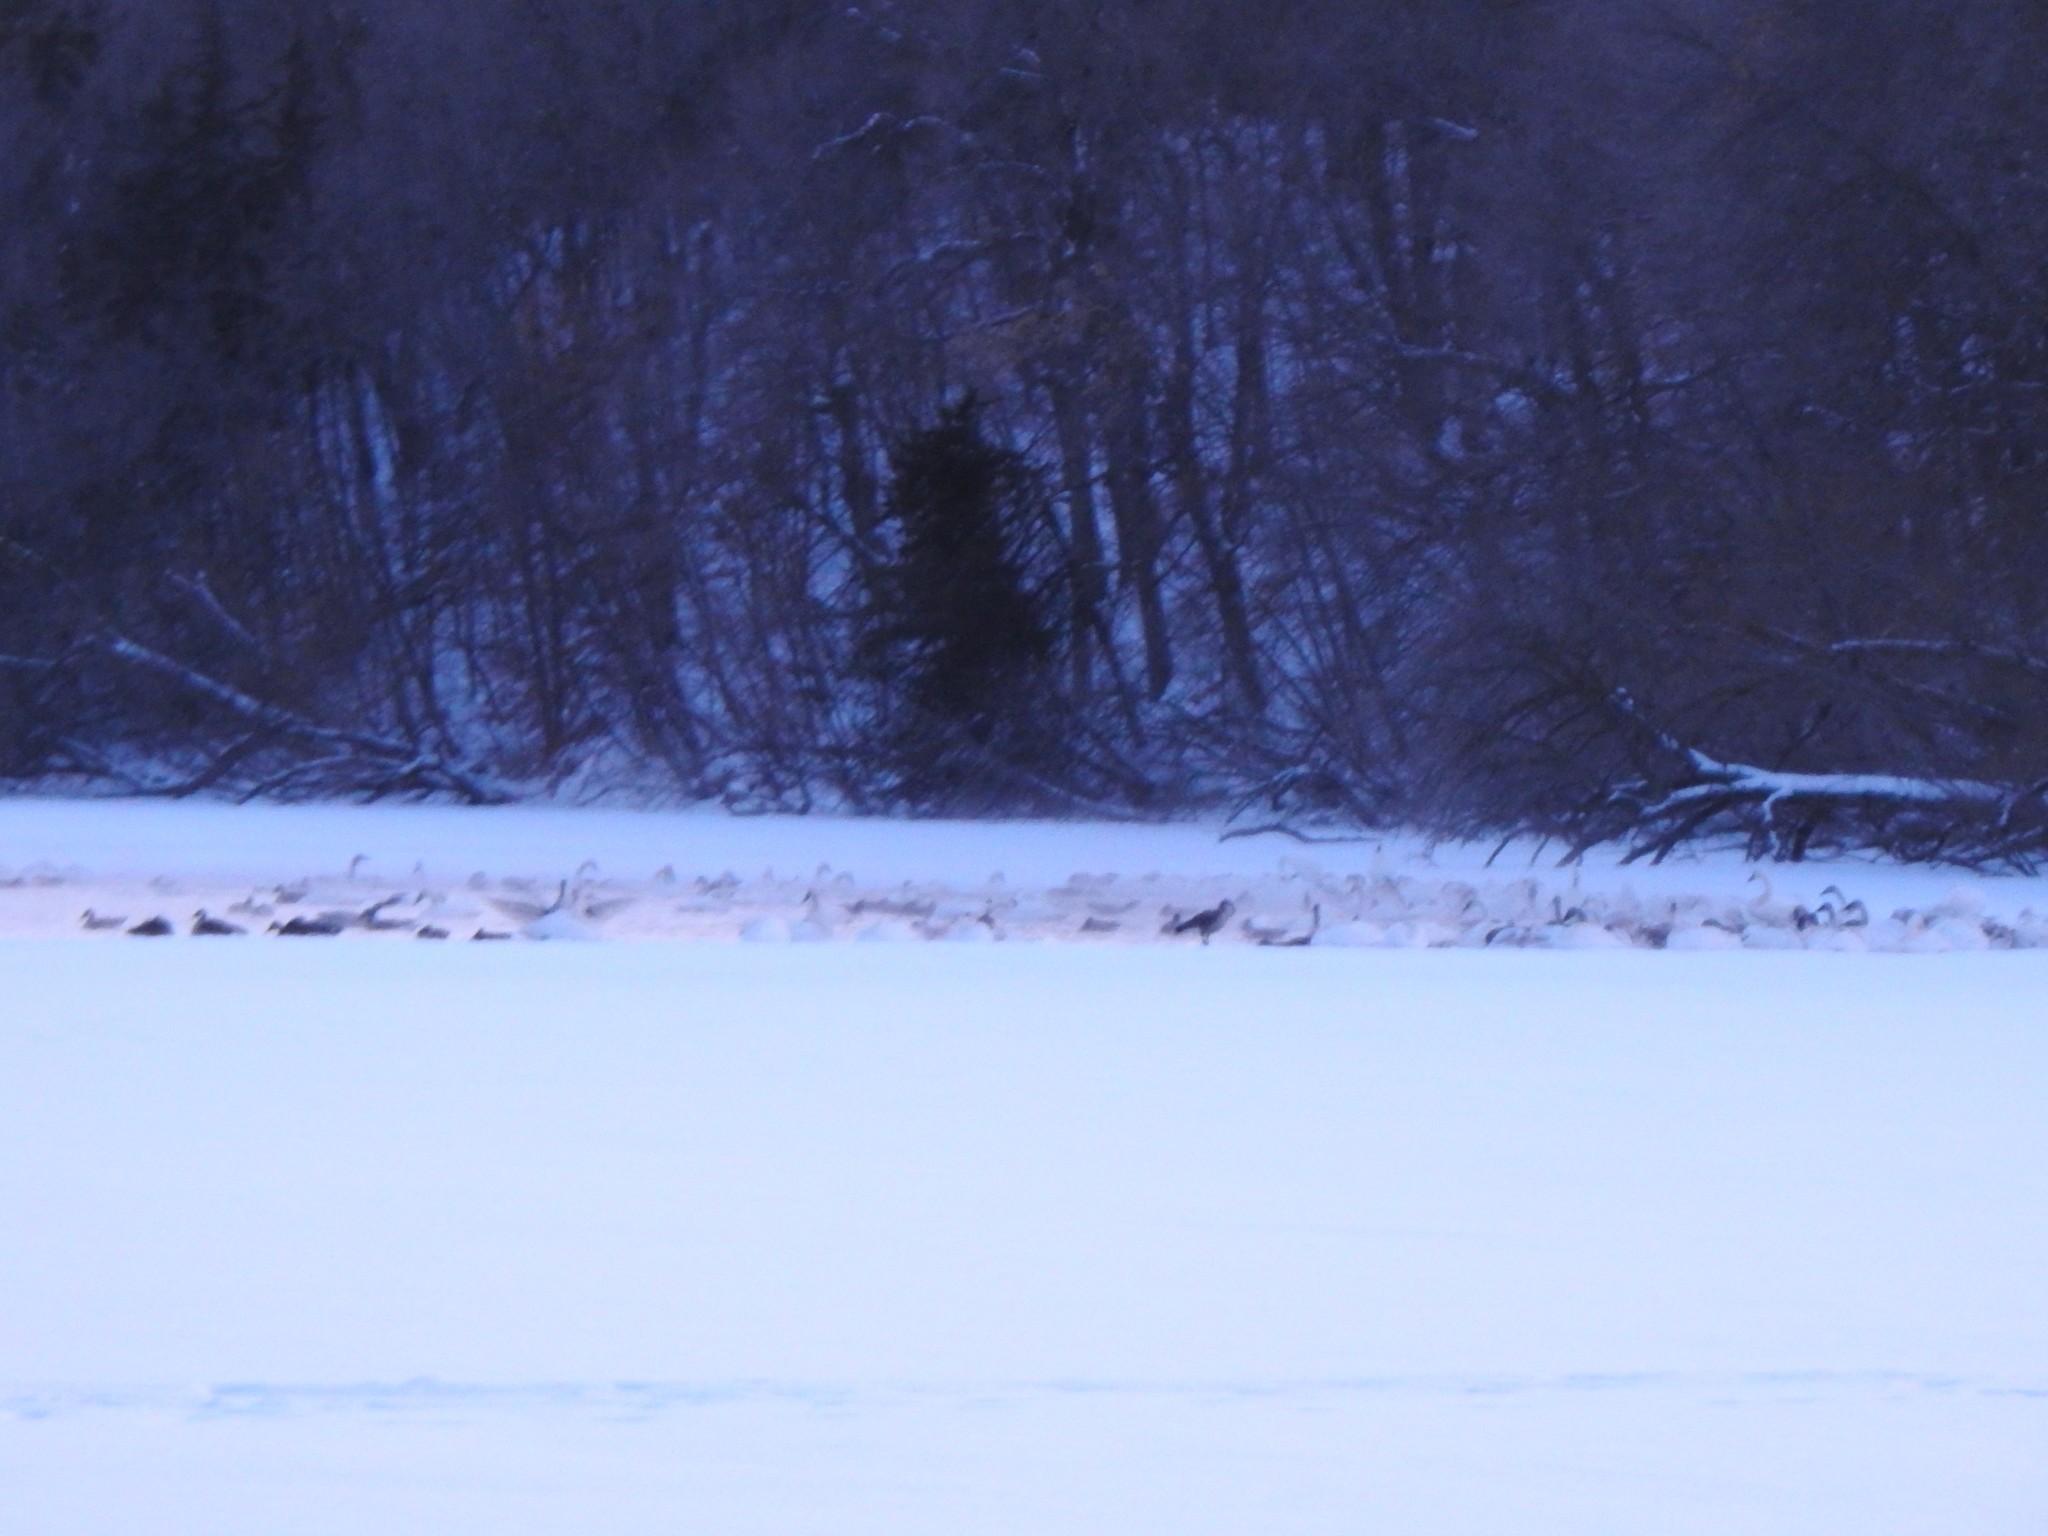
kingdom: Animalia
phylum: Chordata
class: Aves
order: Anseriformes
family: Anatidae
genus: Cygnus
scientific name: Cygnus buccinator
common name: Trumpeter swan
